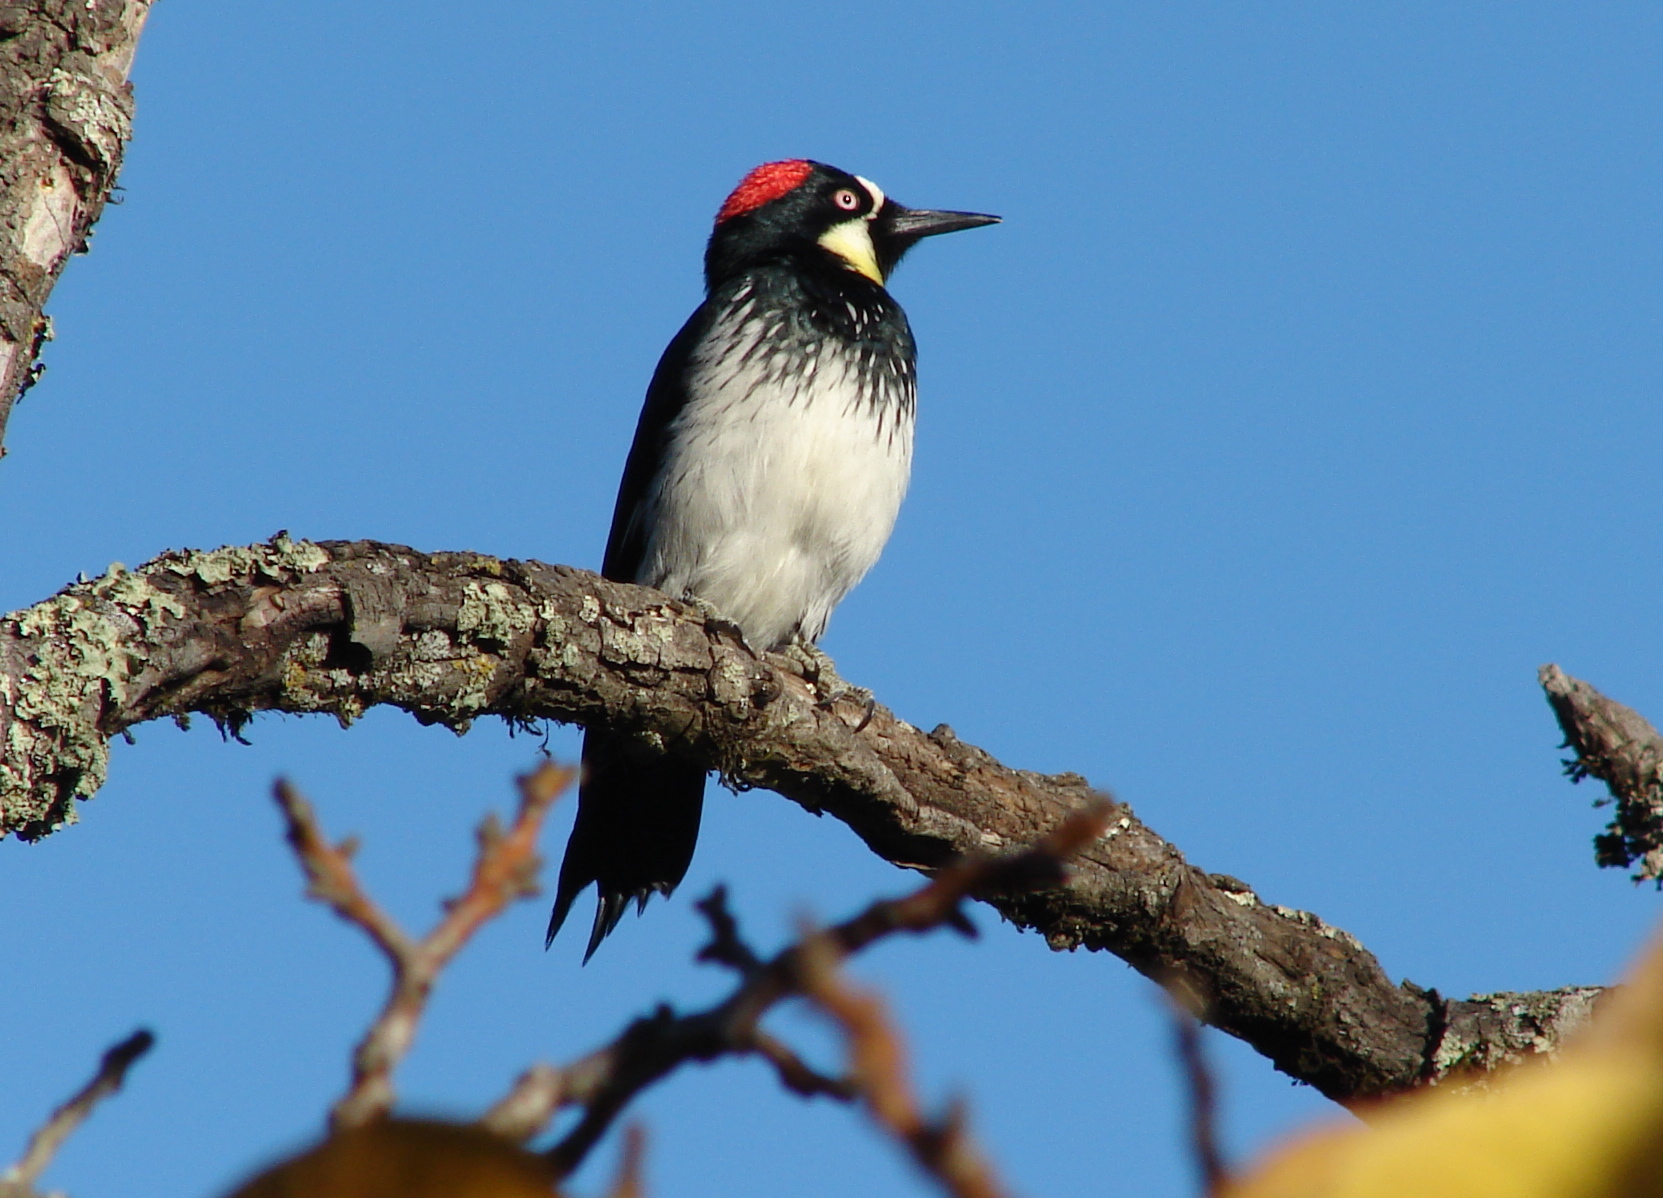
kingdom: Animalia
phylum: Chordata
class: Aves
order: Piciformes
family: Picidae
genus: Melanerpes
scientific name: Melanerpes formicivorus
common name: Acorn woodpecker
